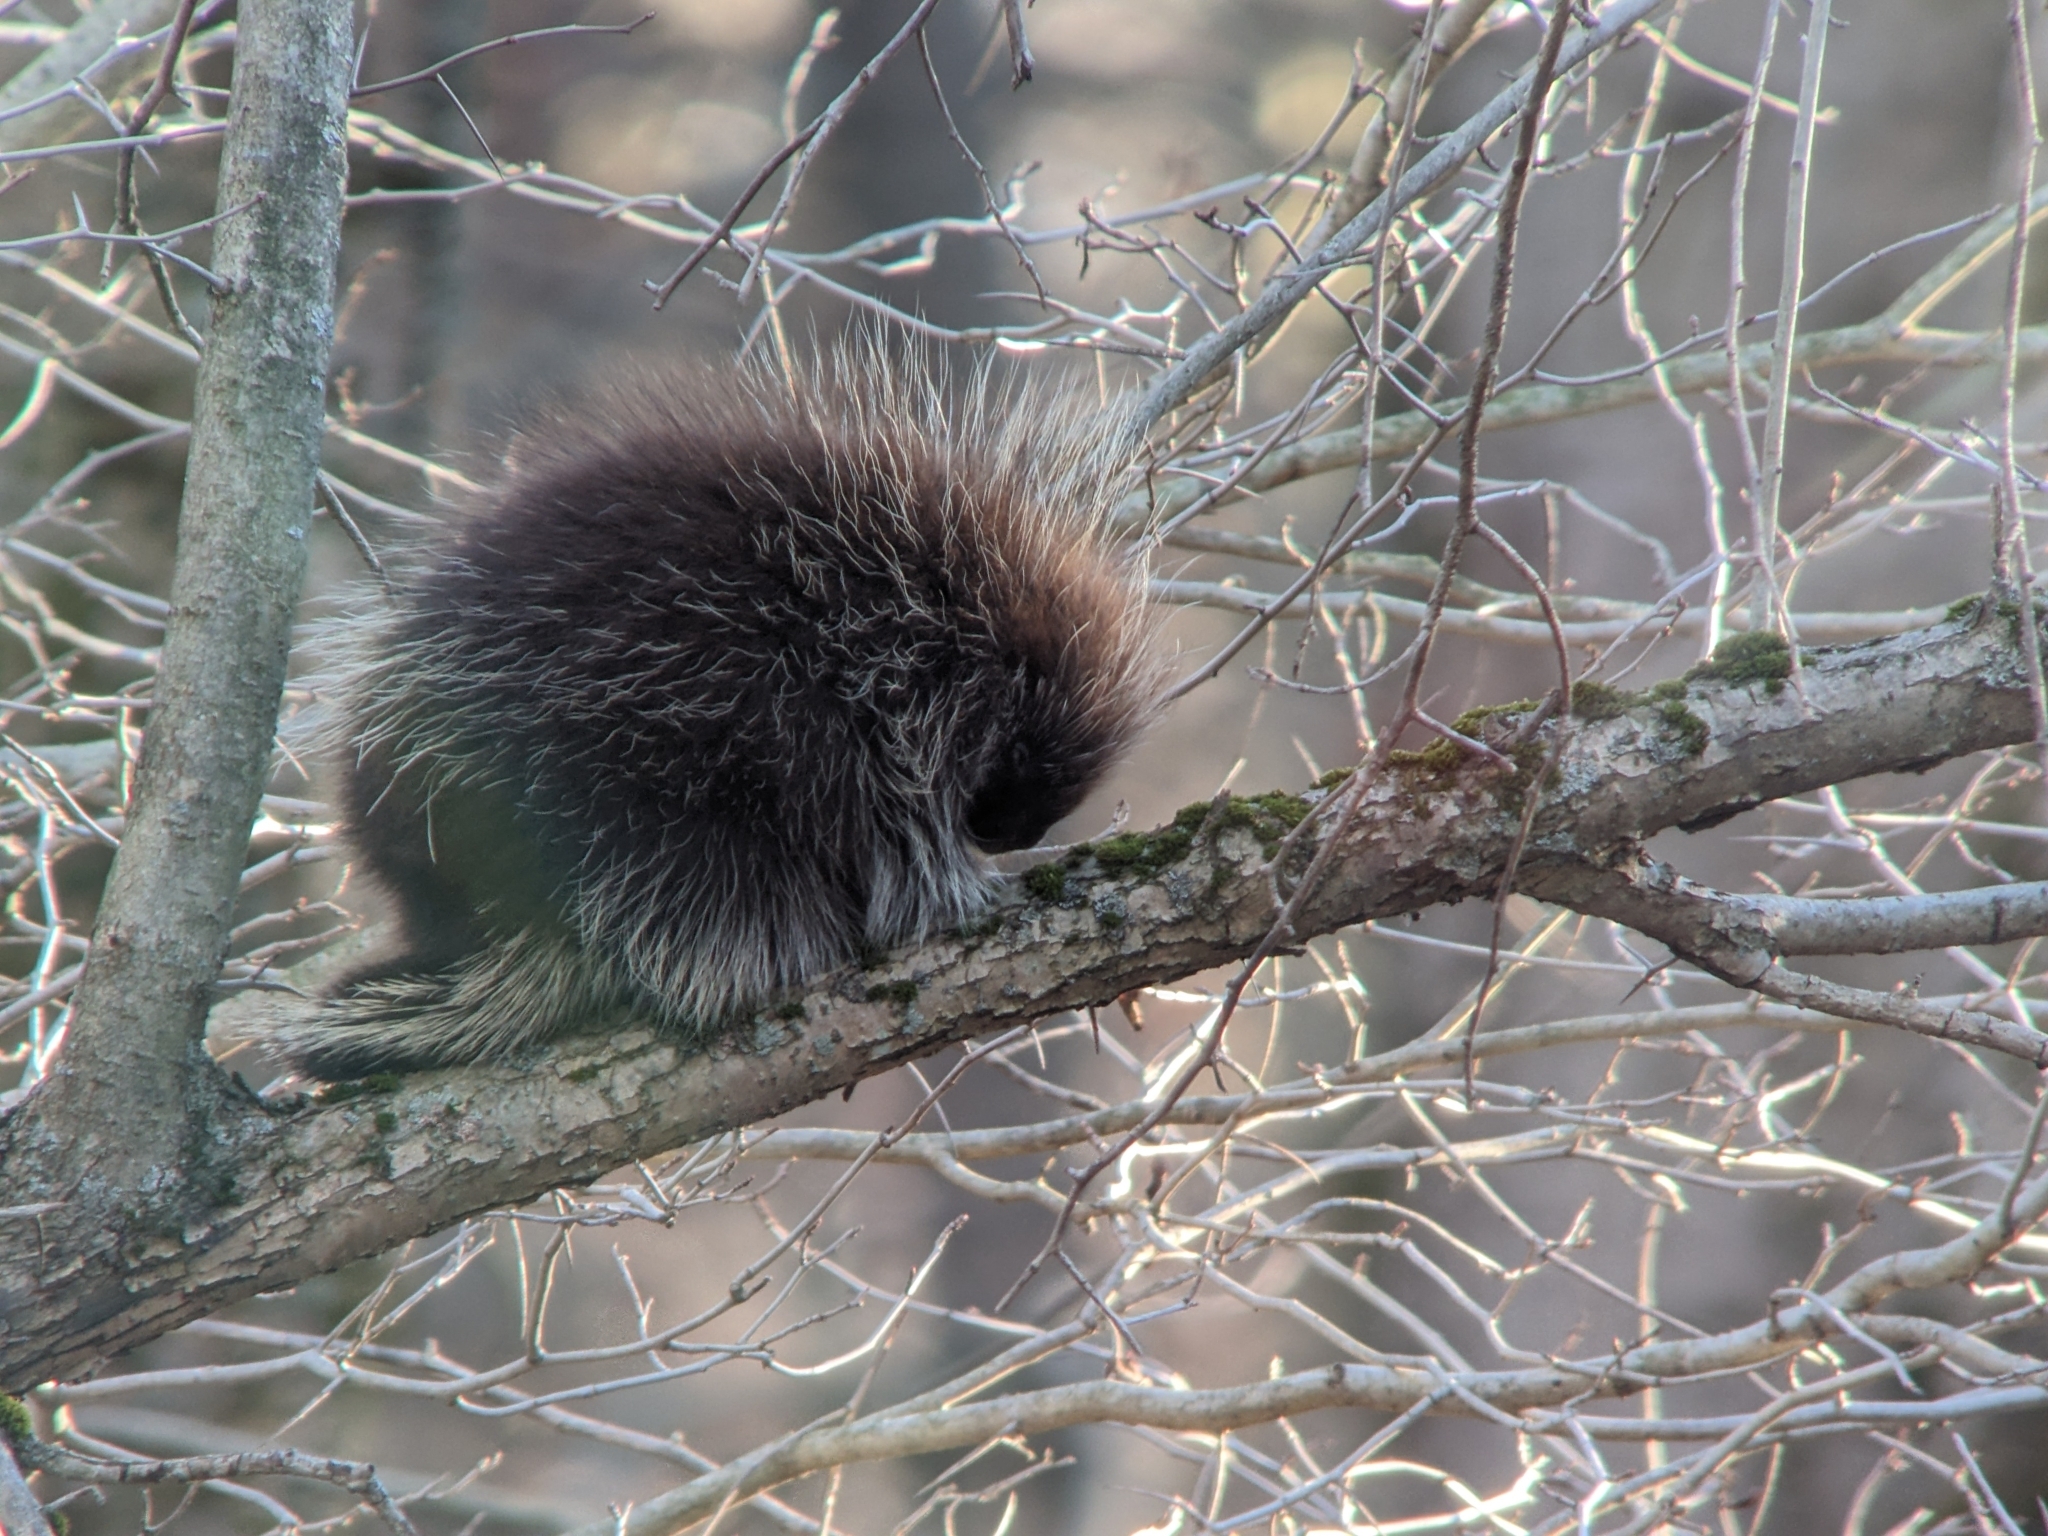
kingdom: Animalia
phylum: Chordata
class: Mammalia
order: Rodentia
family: Erethizontidae
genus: Erethizon
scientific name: Erethizon dorsatus
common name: North american porcupine
